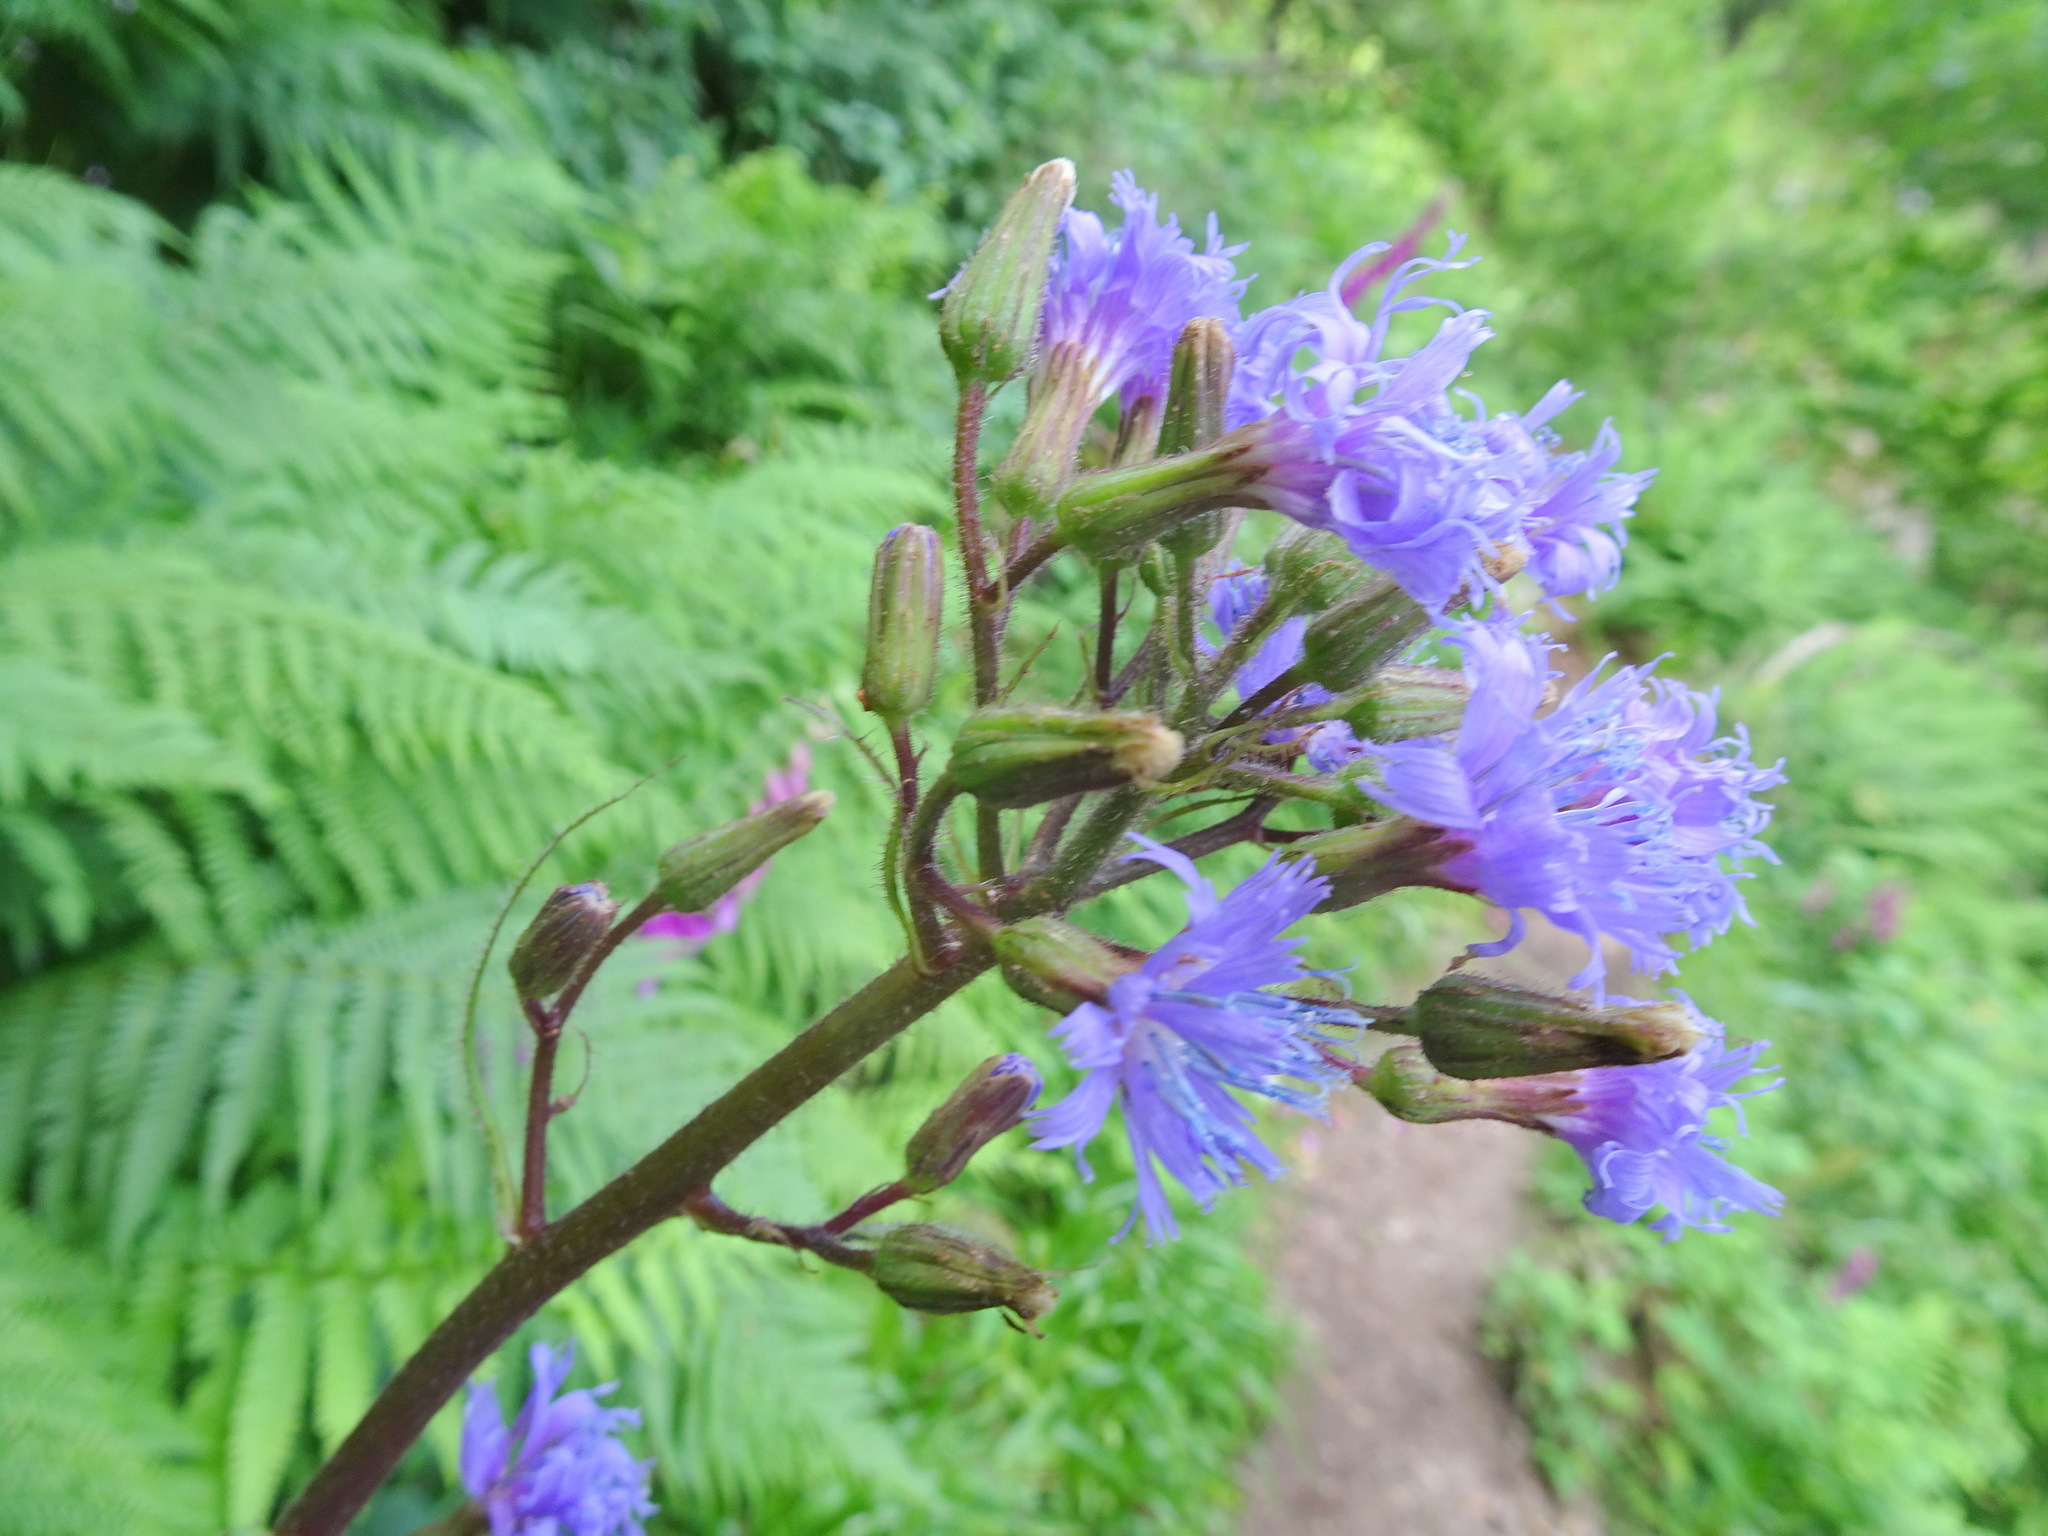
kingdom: Plantae
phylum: Tracheophyta
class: Magnoliopsida
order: Asterales
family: Asteraceae
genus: Cicerbita
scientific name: Cicerbita alpina
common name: Alpine blue-sow-thistle
